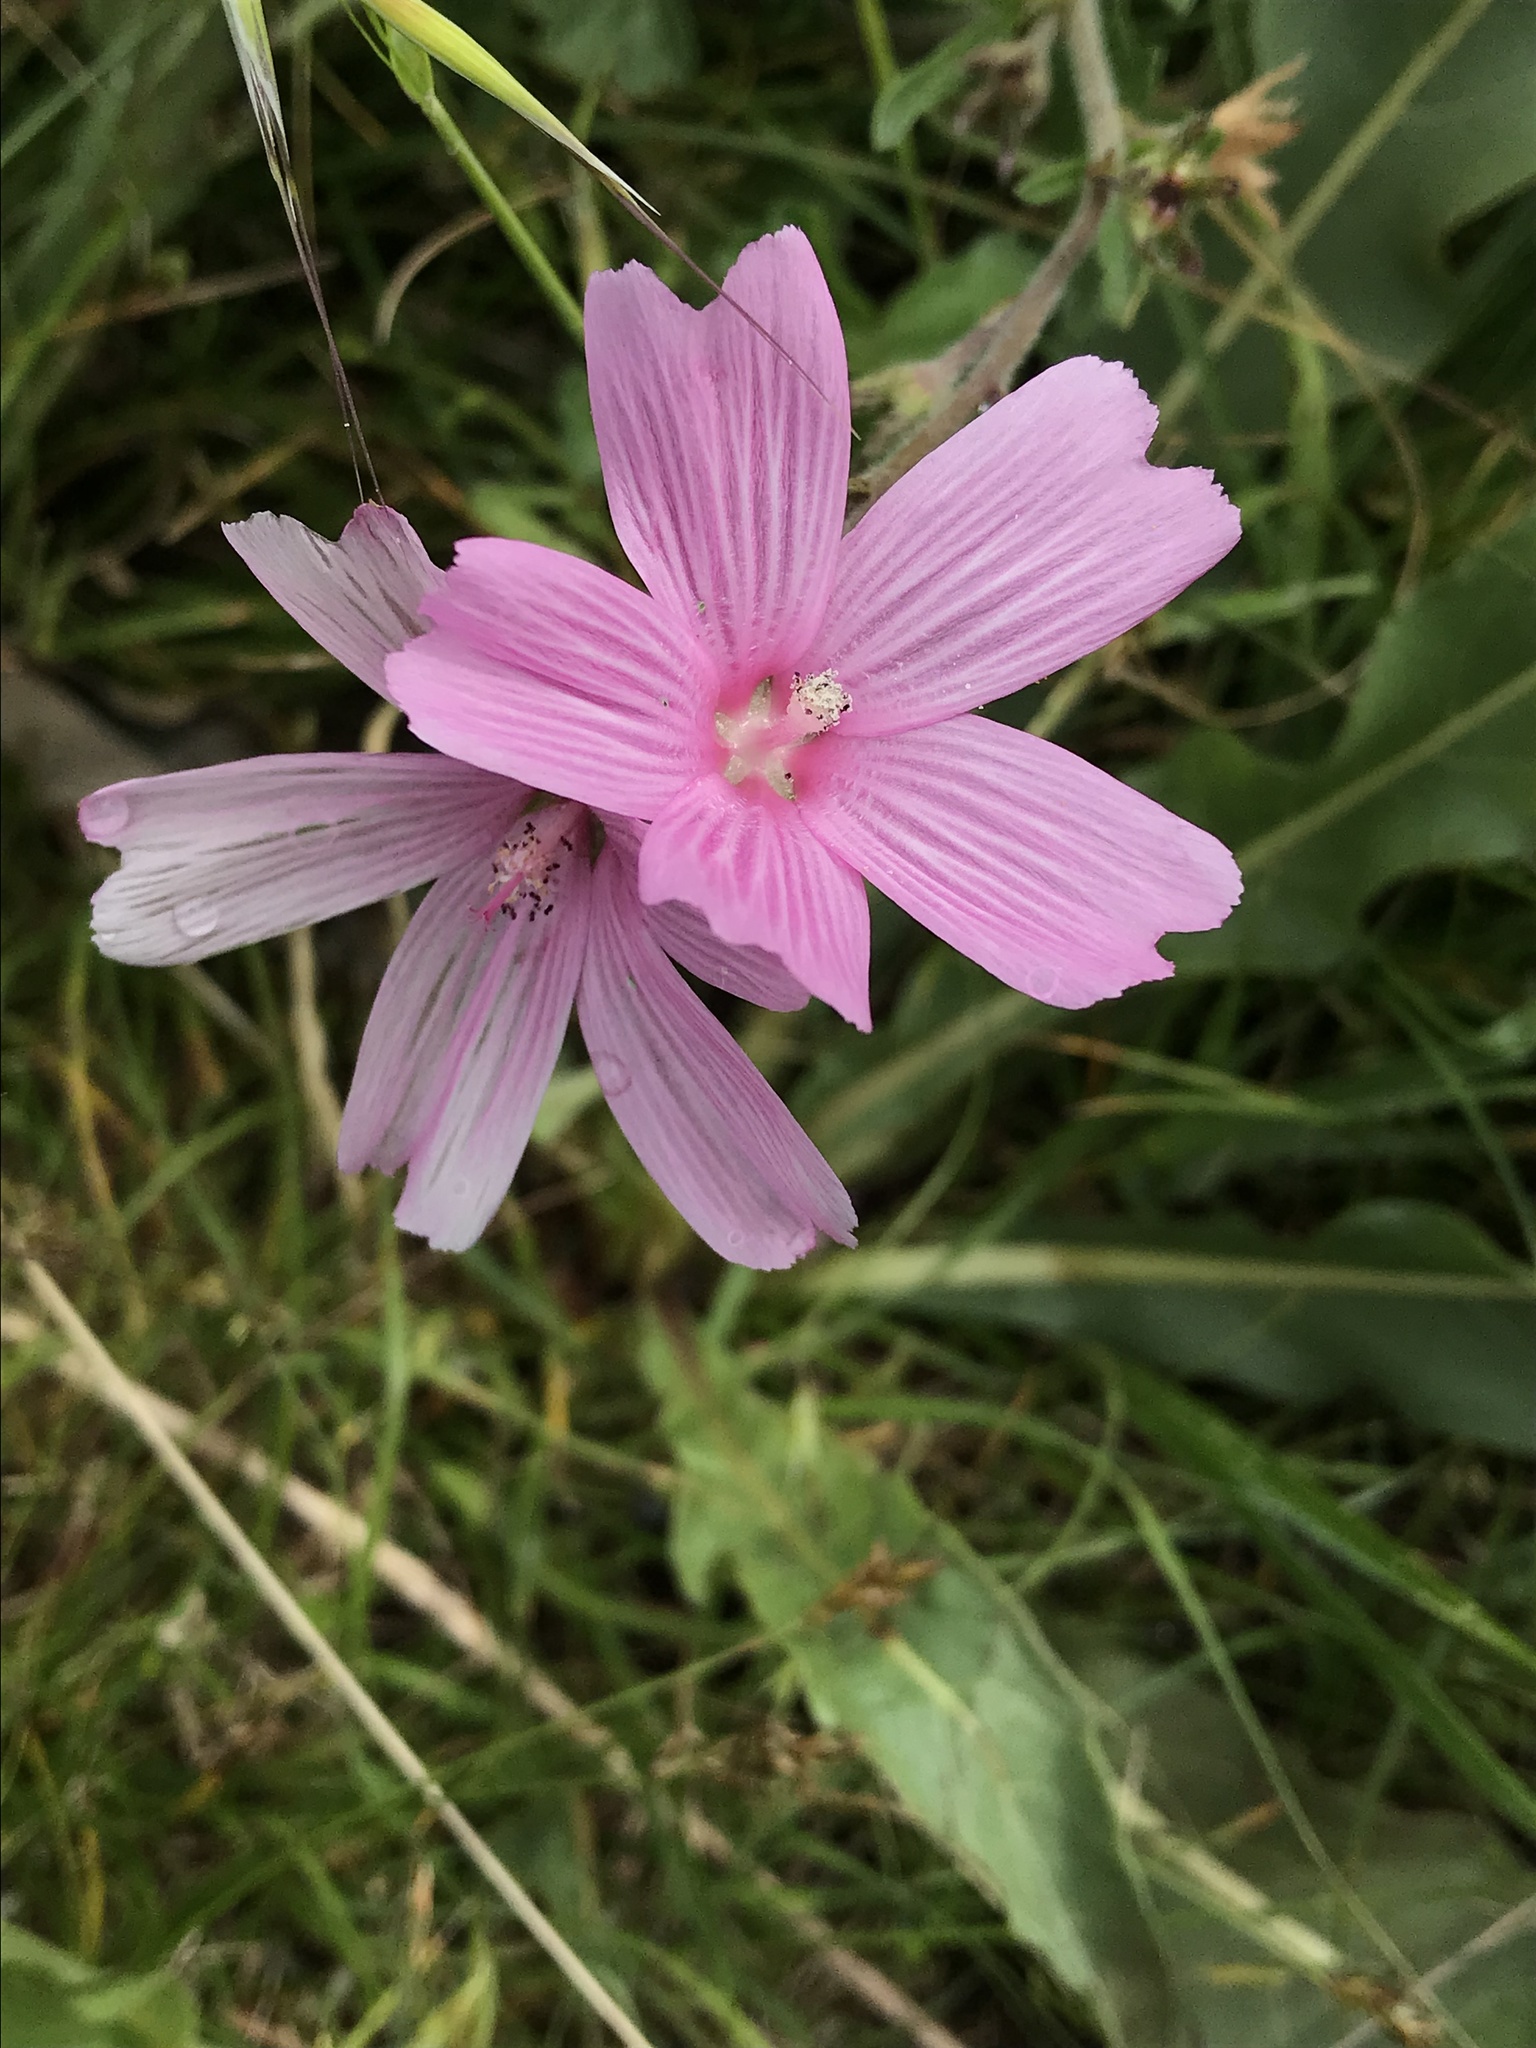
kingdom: Plantae
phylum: Tracheophyta
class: Magnoliopsida
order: Malvales
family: Malvaceae
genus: Sidalcea
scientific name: Sidalcea malviflora
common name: Greek mallow
